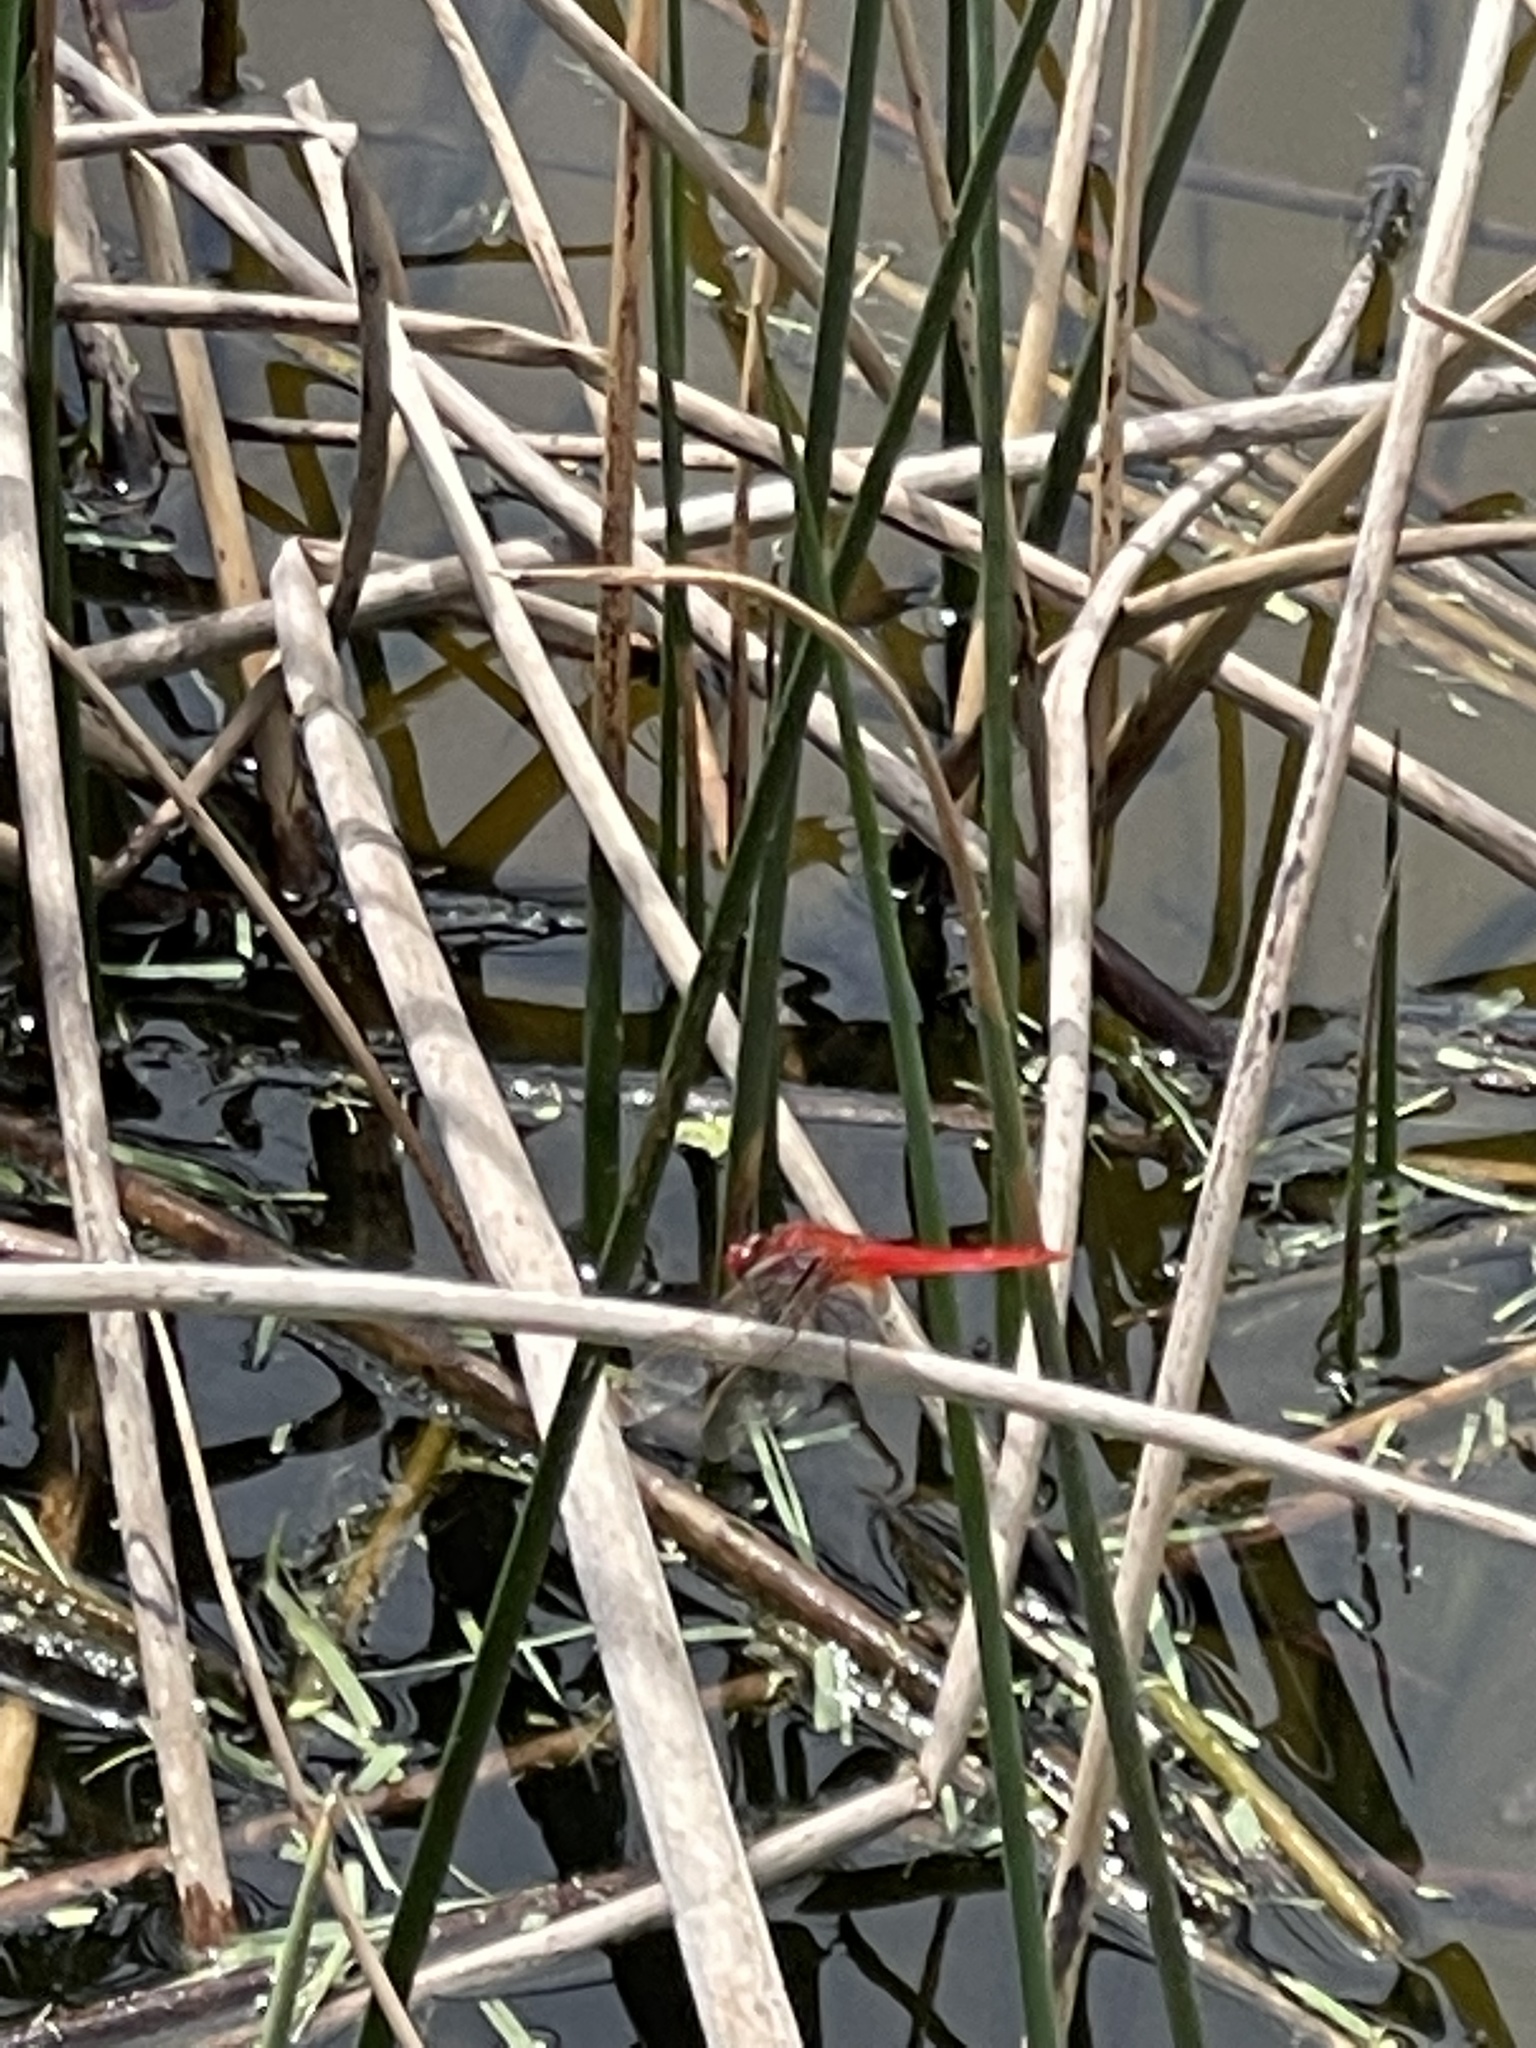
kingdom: Animalia
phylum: Arthropoda
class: Insecta
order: Odonata
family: Libellulidae
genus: Crocothemis
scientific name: Crocothemis servilia
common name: Scarlet skimmer
